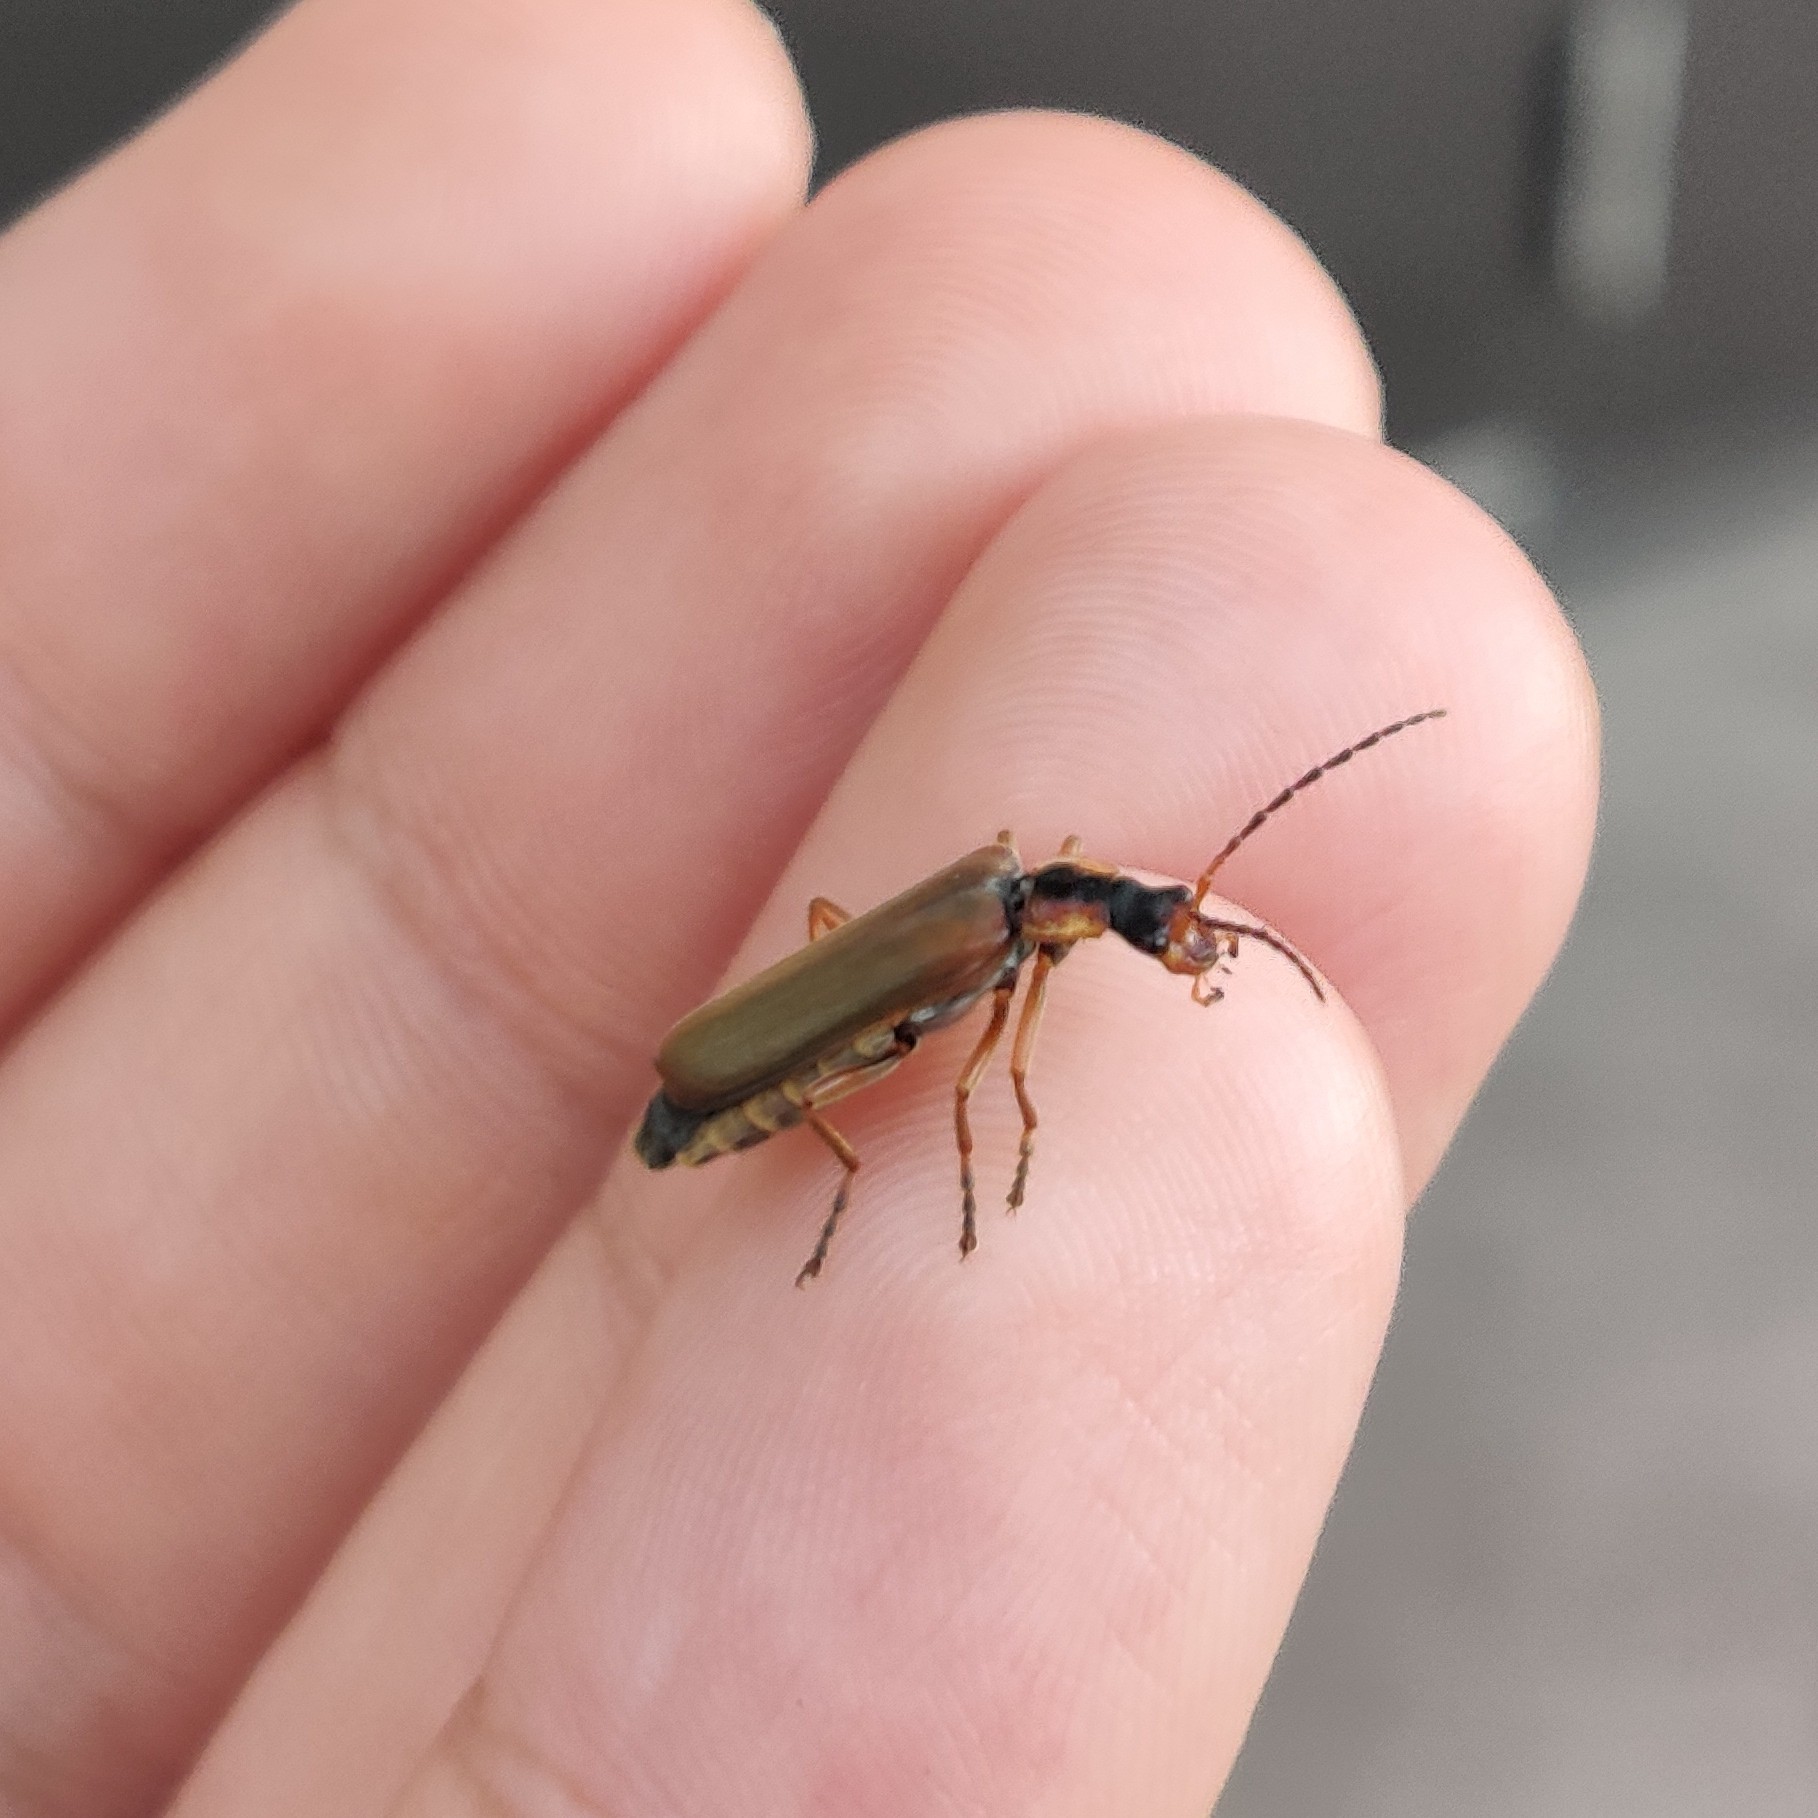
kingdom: Animalia
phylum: Arthropoda
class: Insecta
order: Coleoptera
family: Cantharidae
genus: Podabrus
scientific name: Podabrus alpinus
